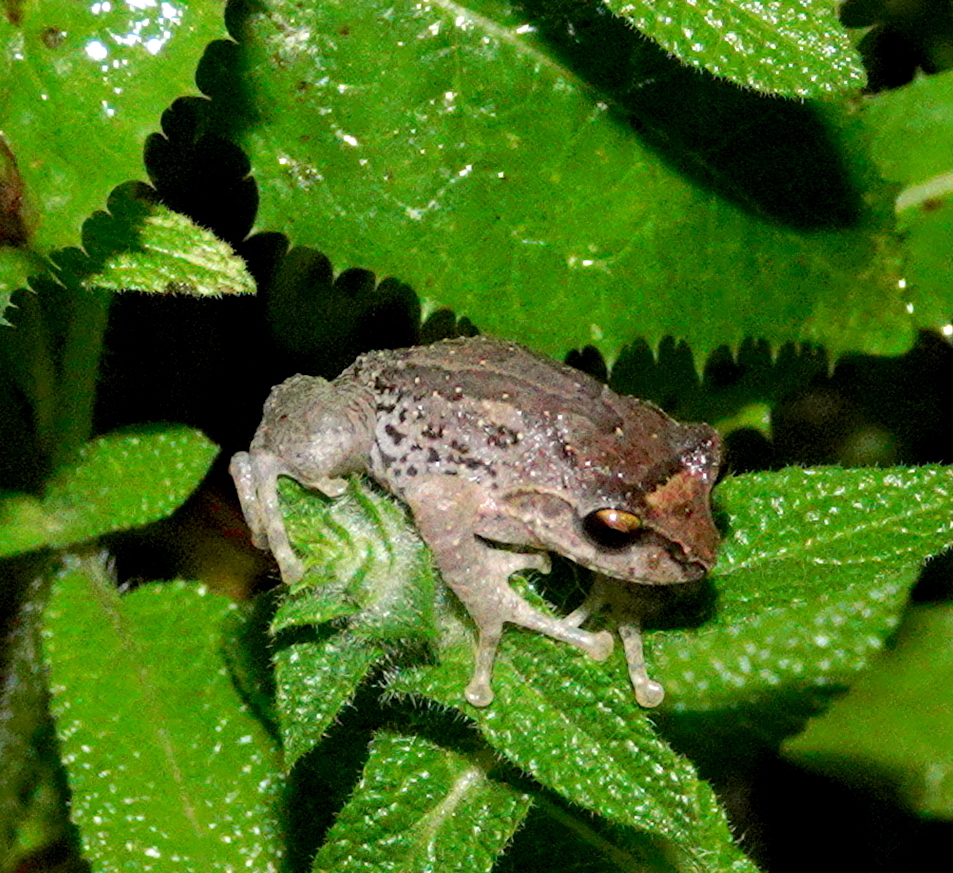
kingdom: Animalia
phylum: Chordata
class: Amphibia
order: Anura
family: Rhacophoridae
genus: Pseudophilautus
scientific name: Pseudophilautus microtympanum
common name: Small-eared shrub frog
